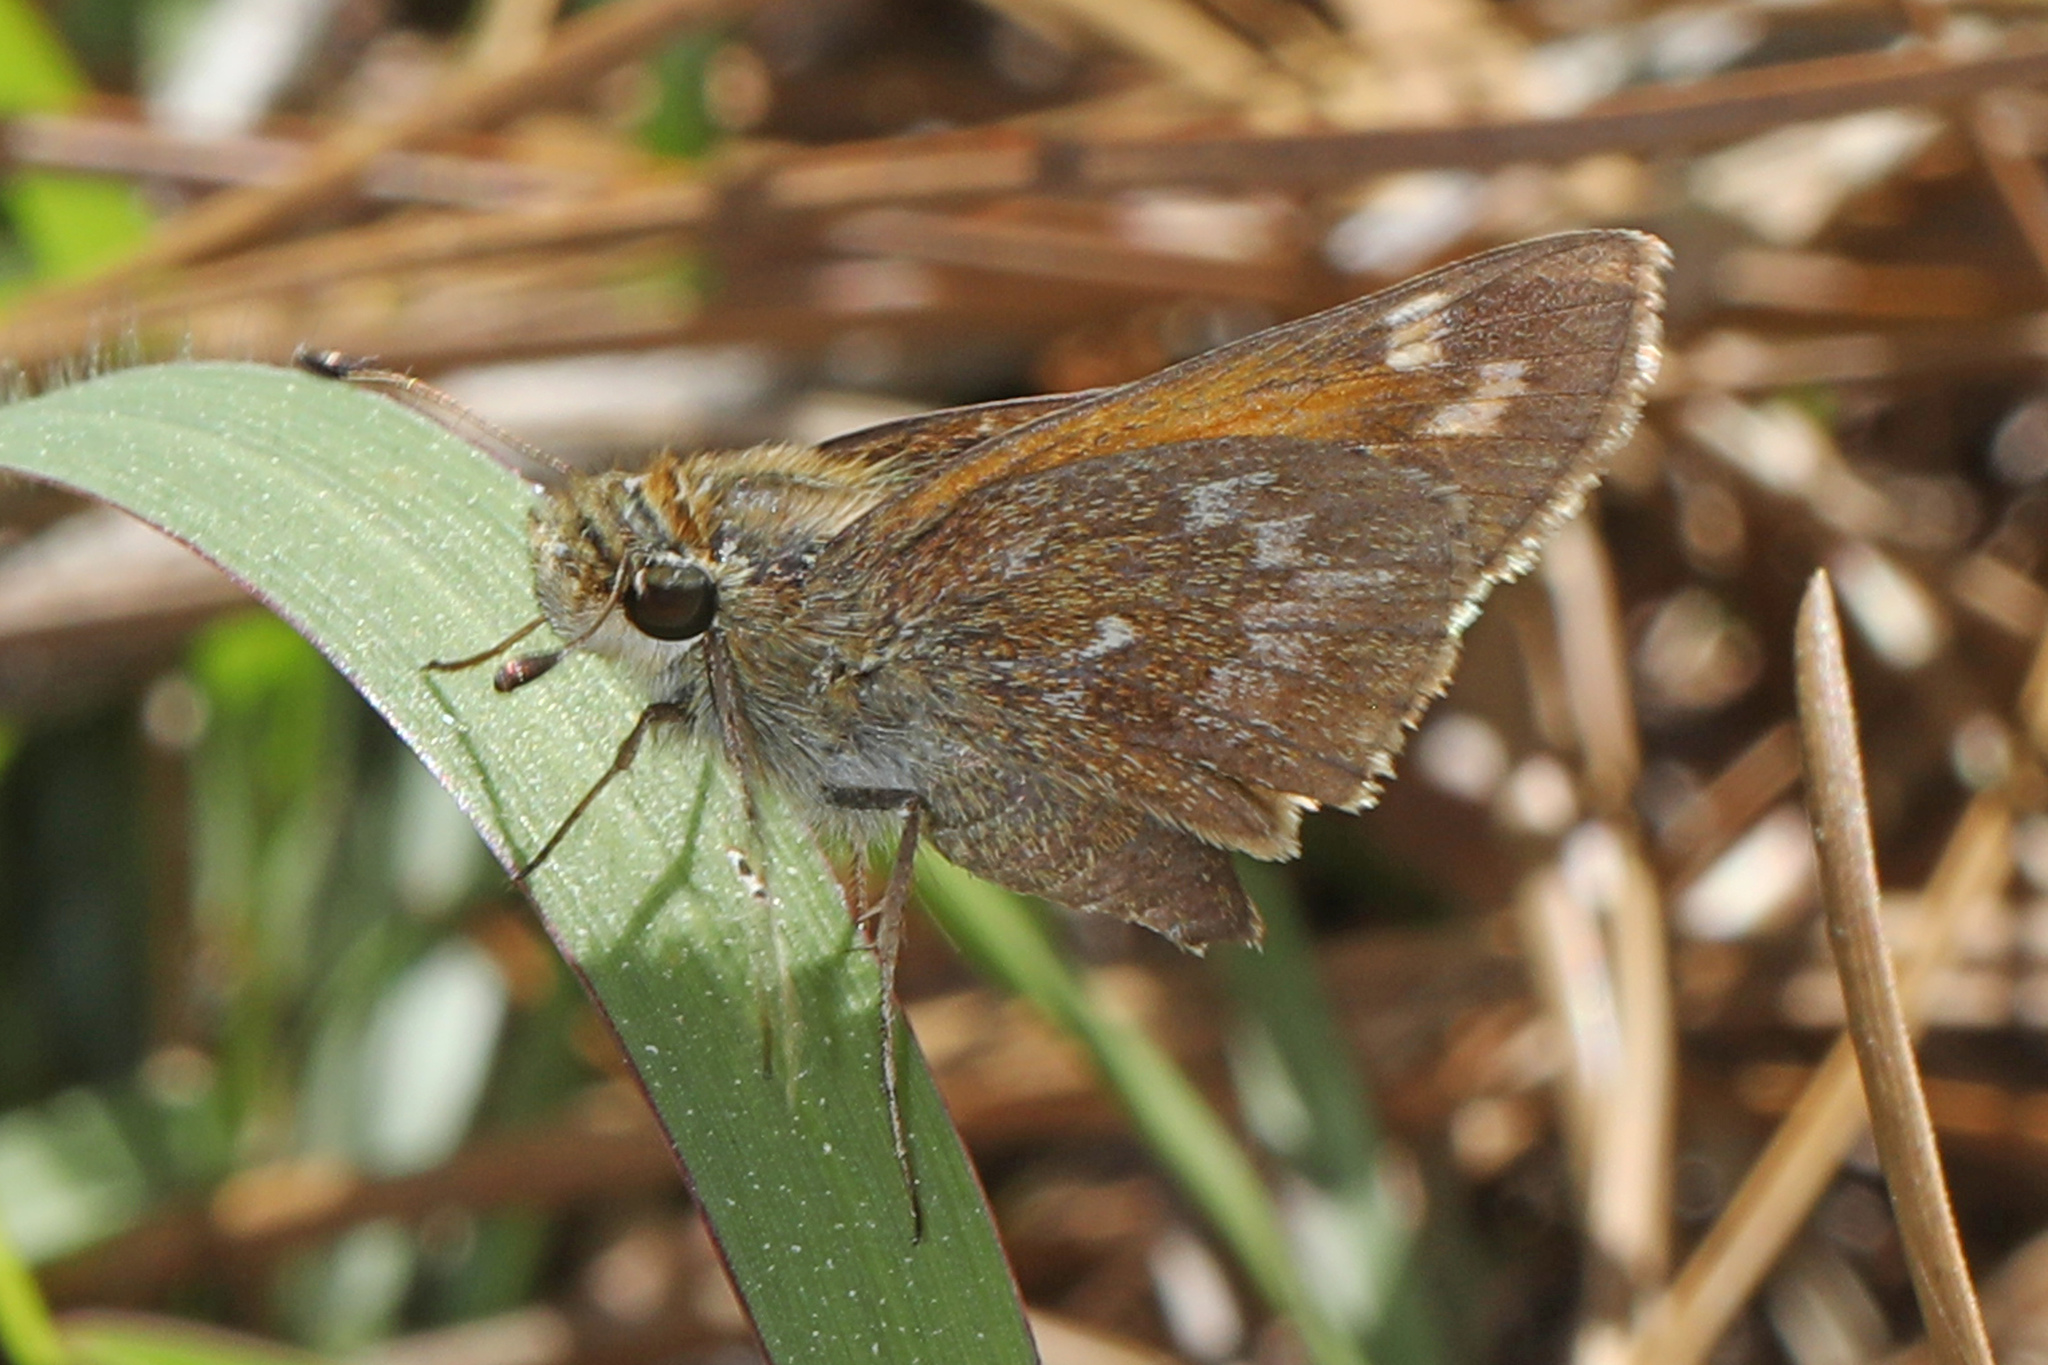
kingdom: Animalia
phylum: Arthropoda
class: Insecta
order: Lepidoptera
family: Hesperiidae
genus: Atalopedes
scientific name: Atalopedes
